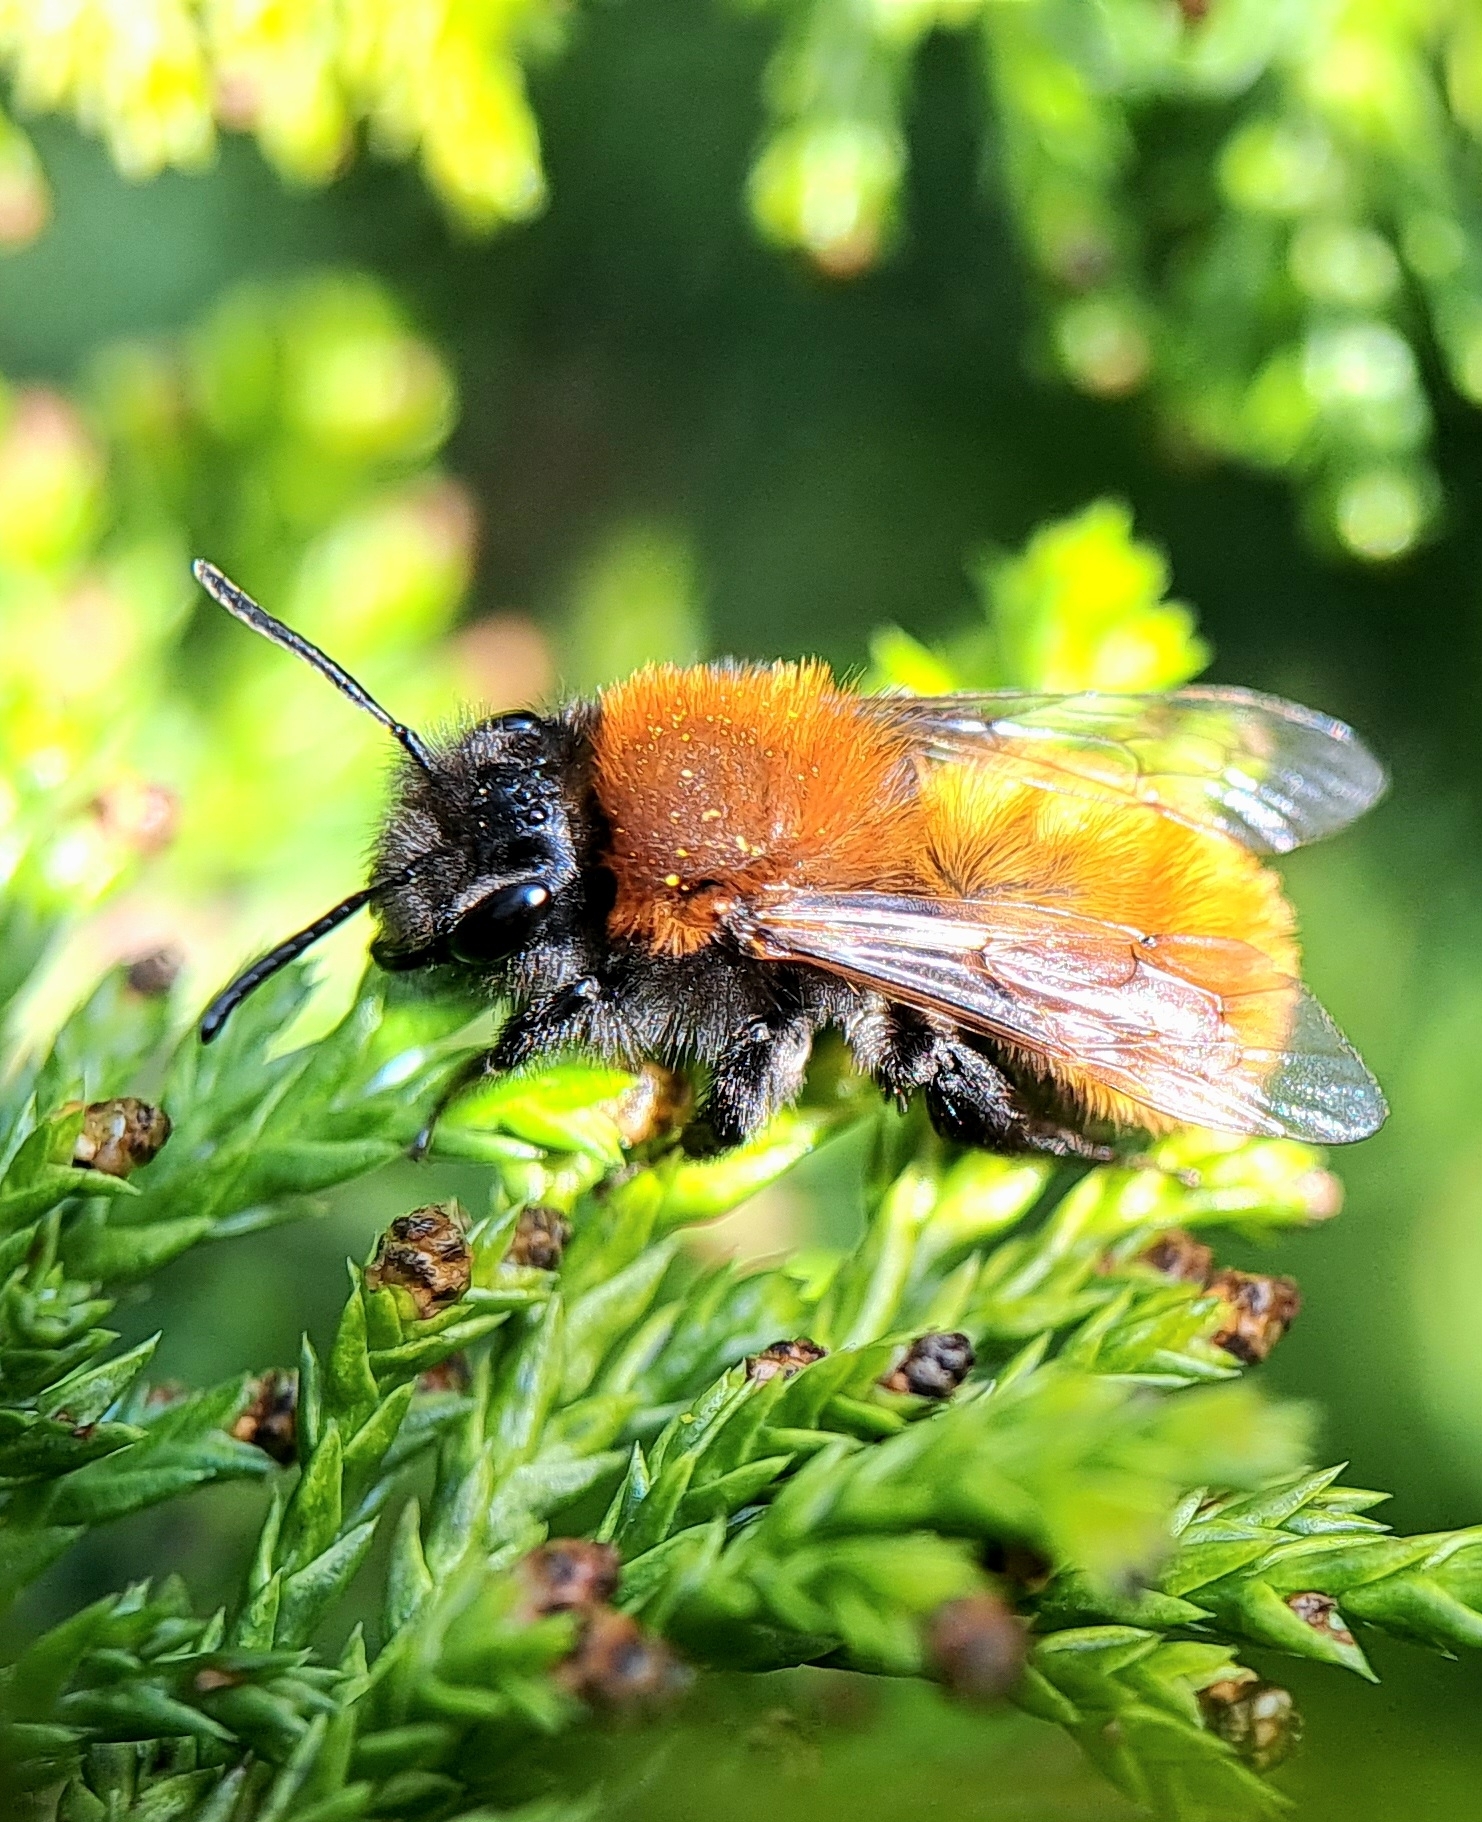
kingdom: Animalia
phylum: Arthropoda
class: Insecta
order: Hymenoptera
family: Andrenidae
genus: Andrena
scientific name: Andrena fulva
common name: Tawny mining bee
